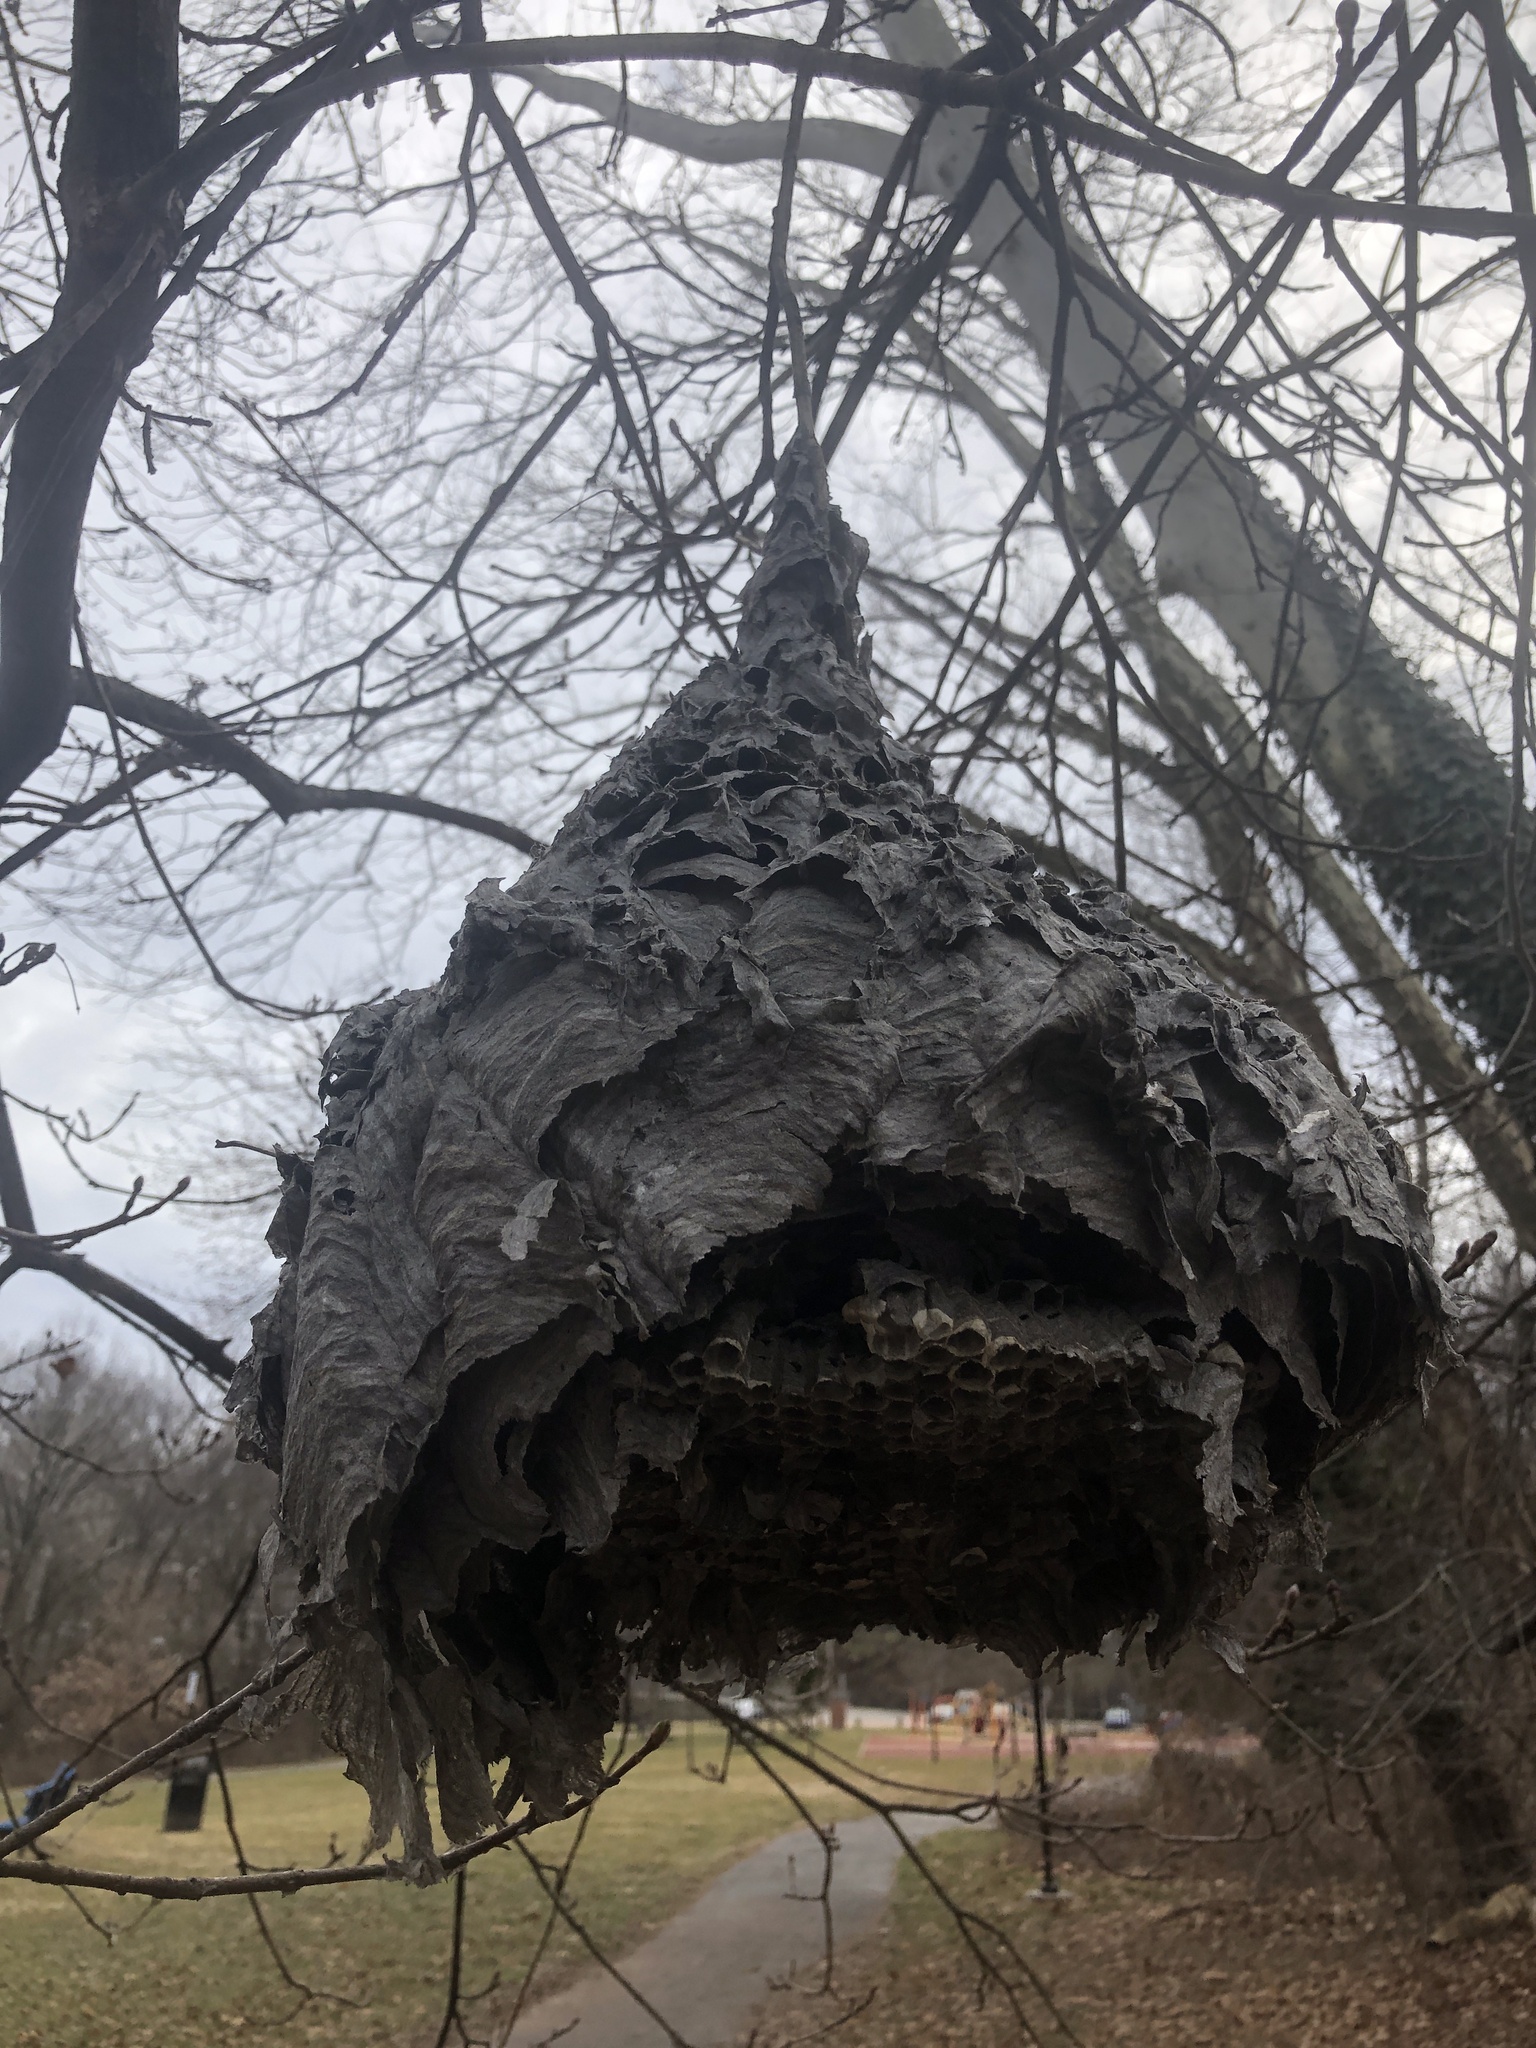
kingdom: Animalia
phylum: Arthropoda
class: Insecta
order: Hymenoptera
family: Vespidae
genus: Dolichovespula
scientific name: Dolichovespula maculata
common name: Bald-faced hornet
